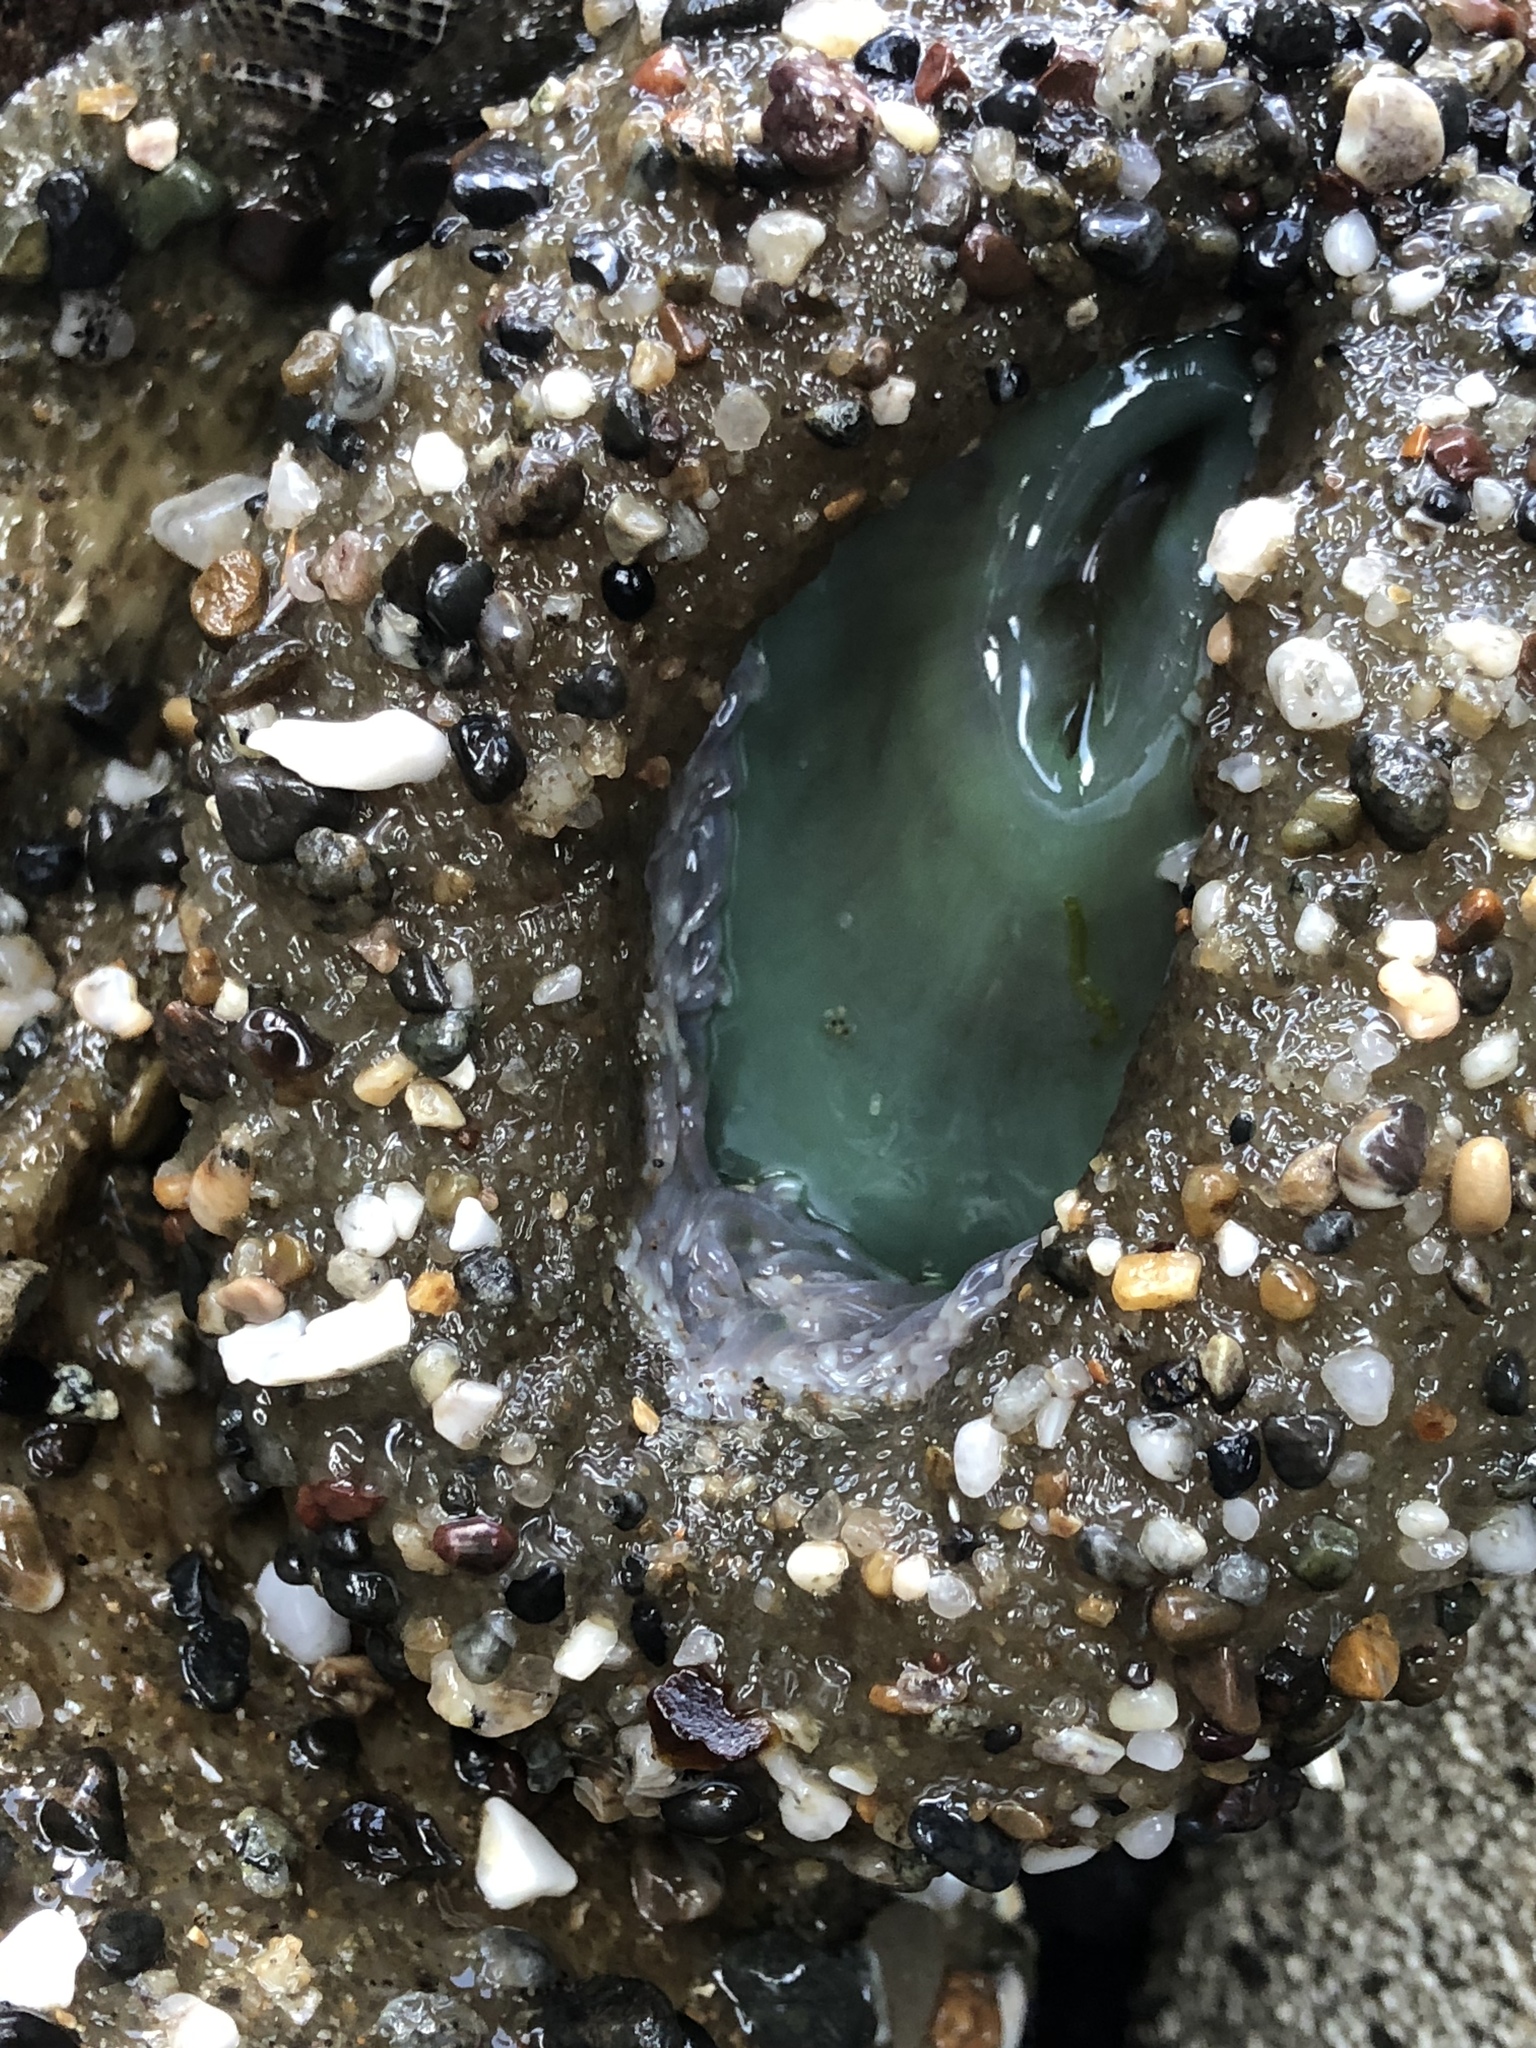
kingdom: Animalia
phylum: Cnidaria
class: Anthozoa
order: Actiniaria
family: Actiniidae
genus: Anthopleura
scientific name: Anthopleura xanthogrammica
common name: Giant green anemone
